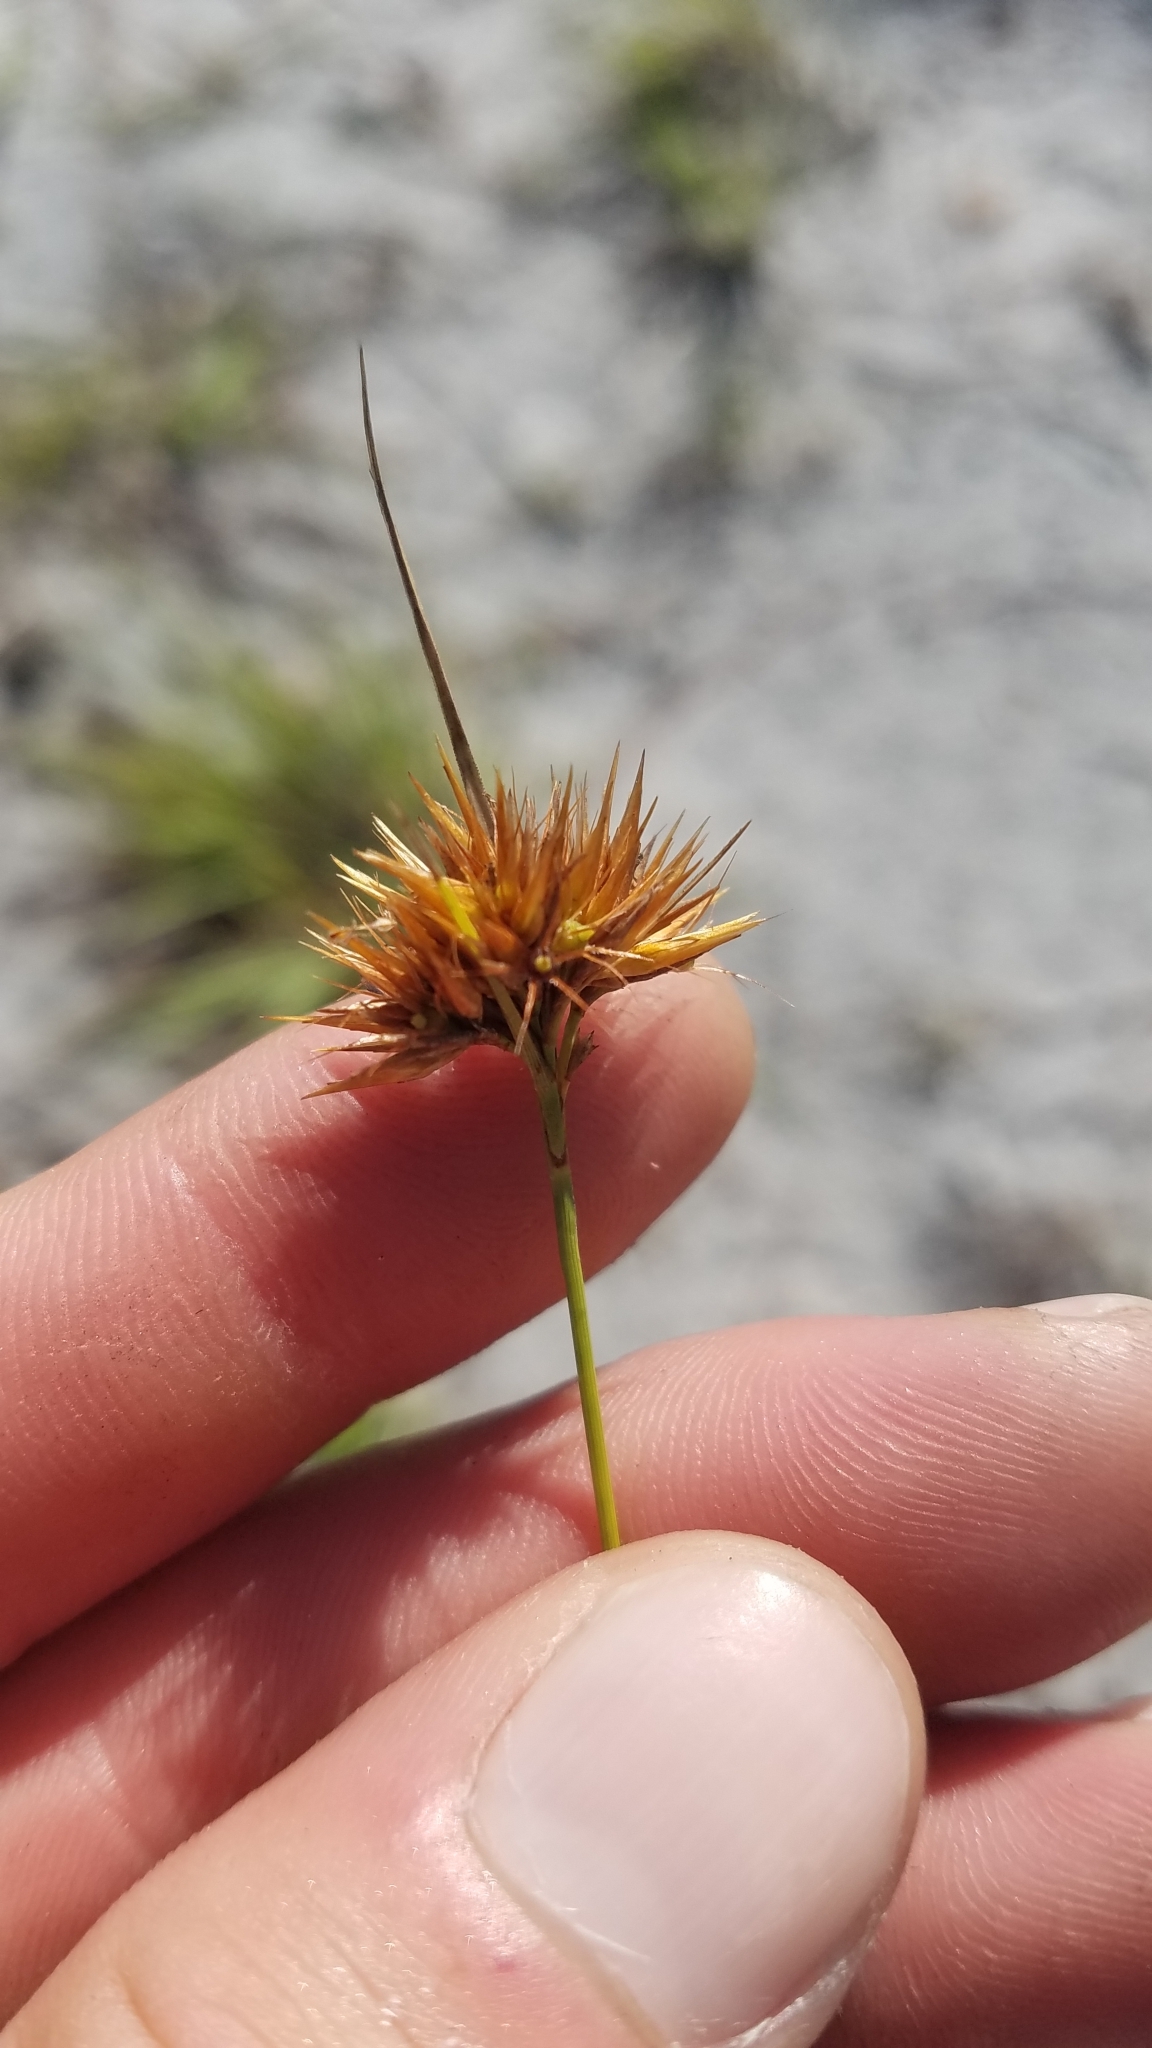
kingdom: Plantae
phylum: Tracheophyta
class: Liliopsida
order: Poales
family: Cyperaceae
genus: Rhynchospora
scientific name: Rhynchospora megaplumosa
